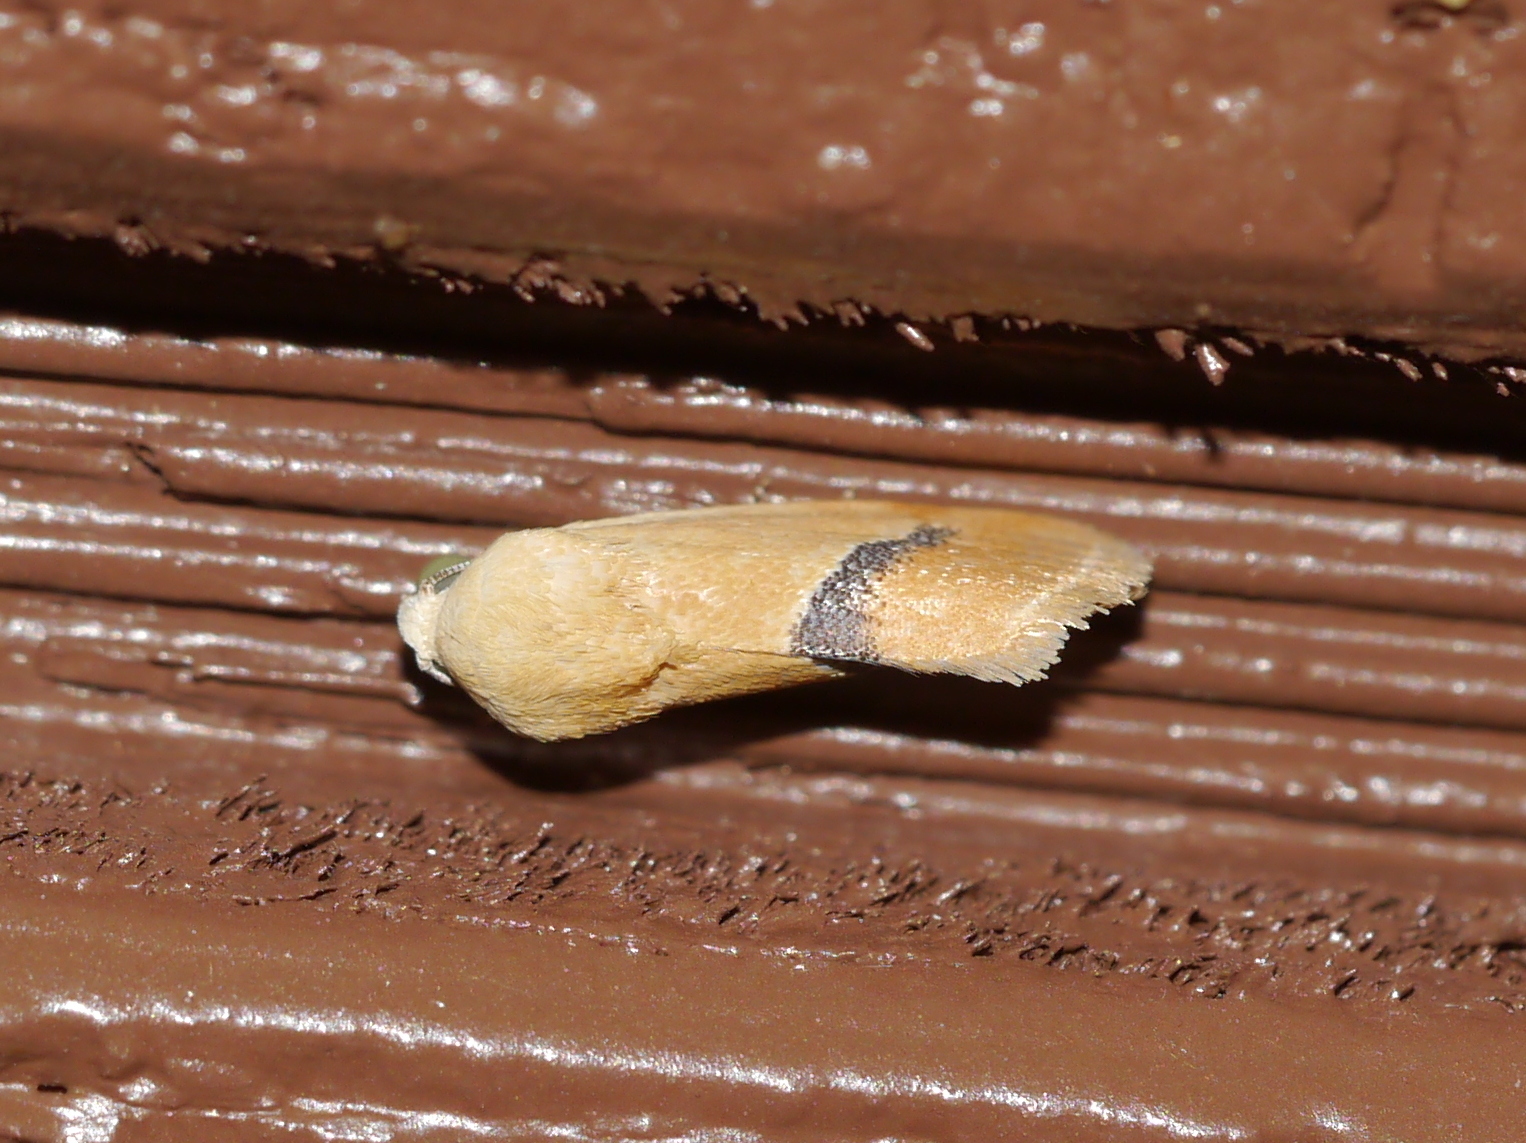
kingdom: Animalia
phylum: Arthropoda
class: Insecta
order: Lepidoptera
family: Noctuidae
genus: Ponometia
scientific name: Ponometia venustula
